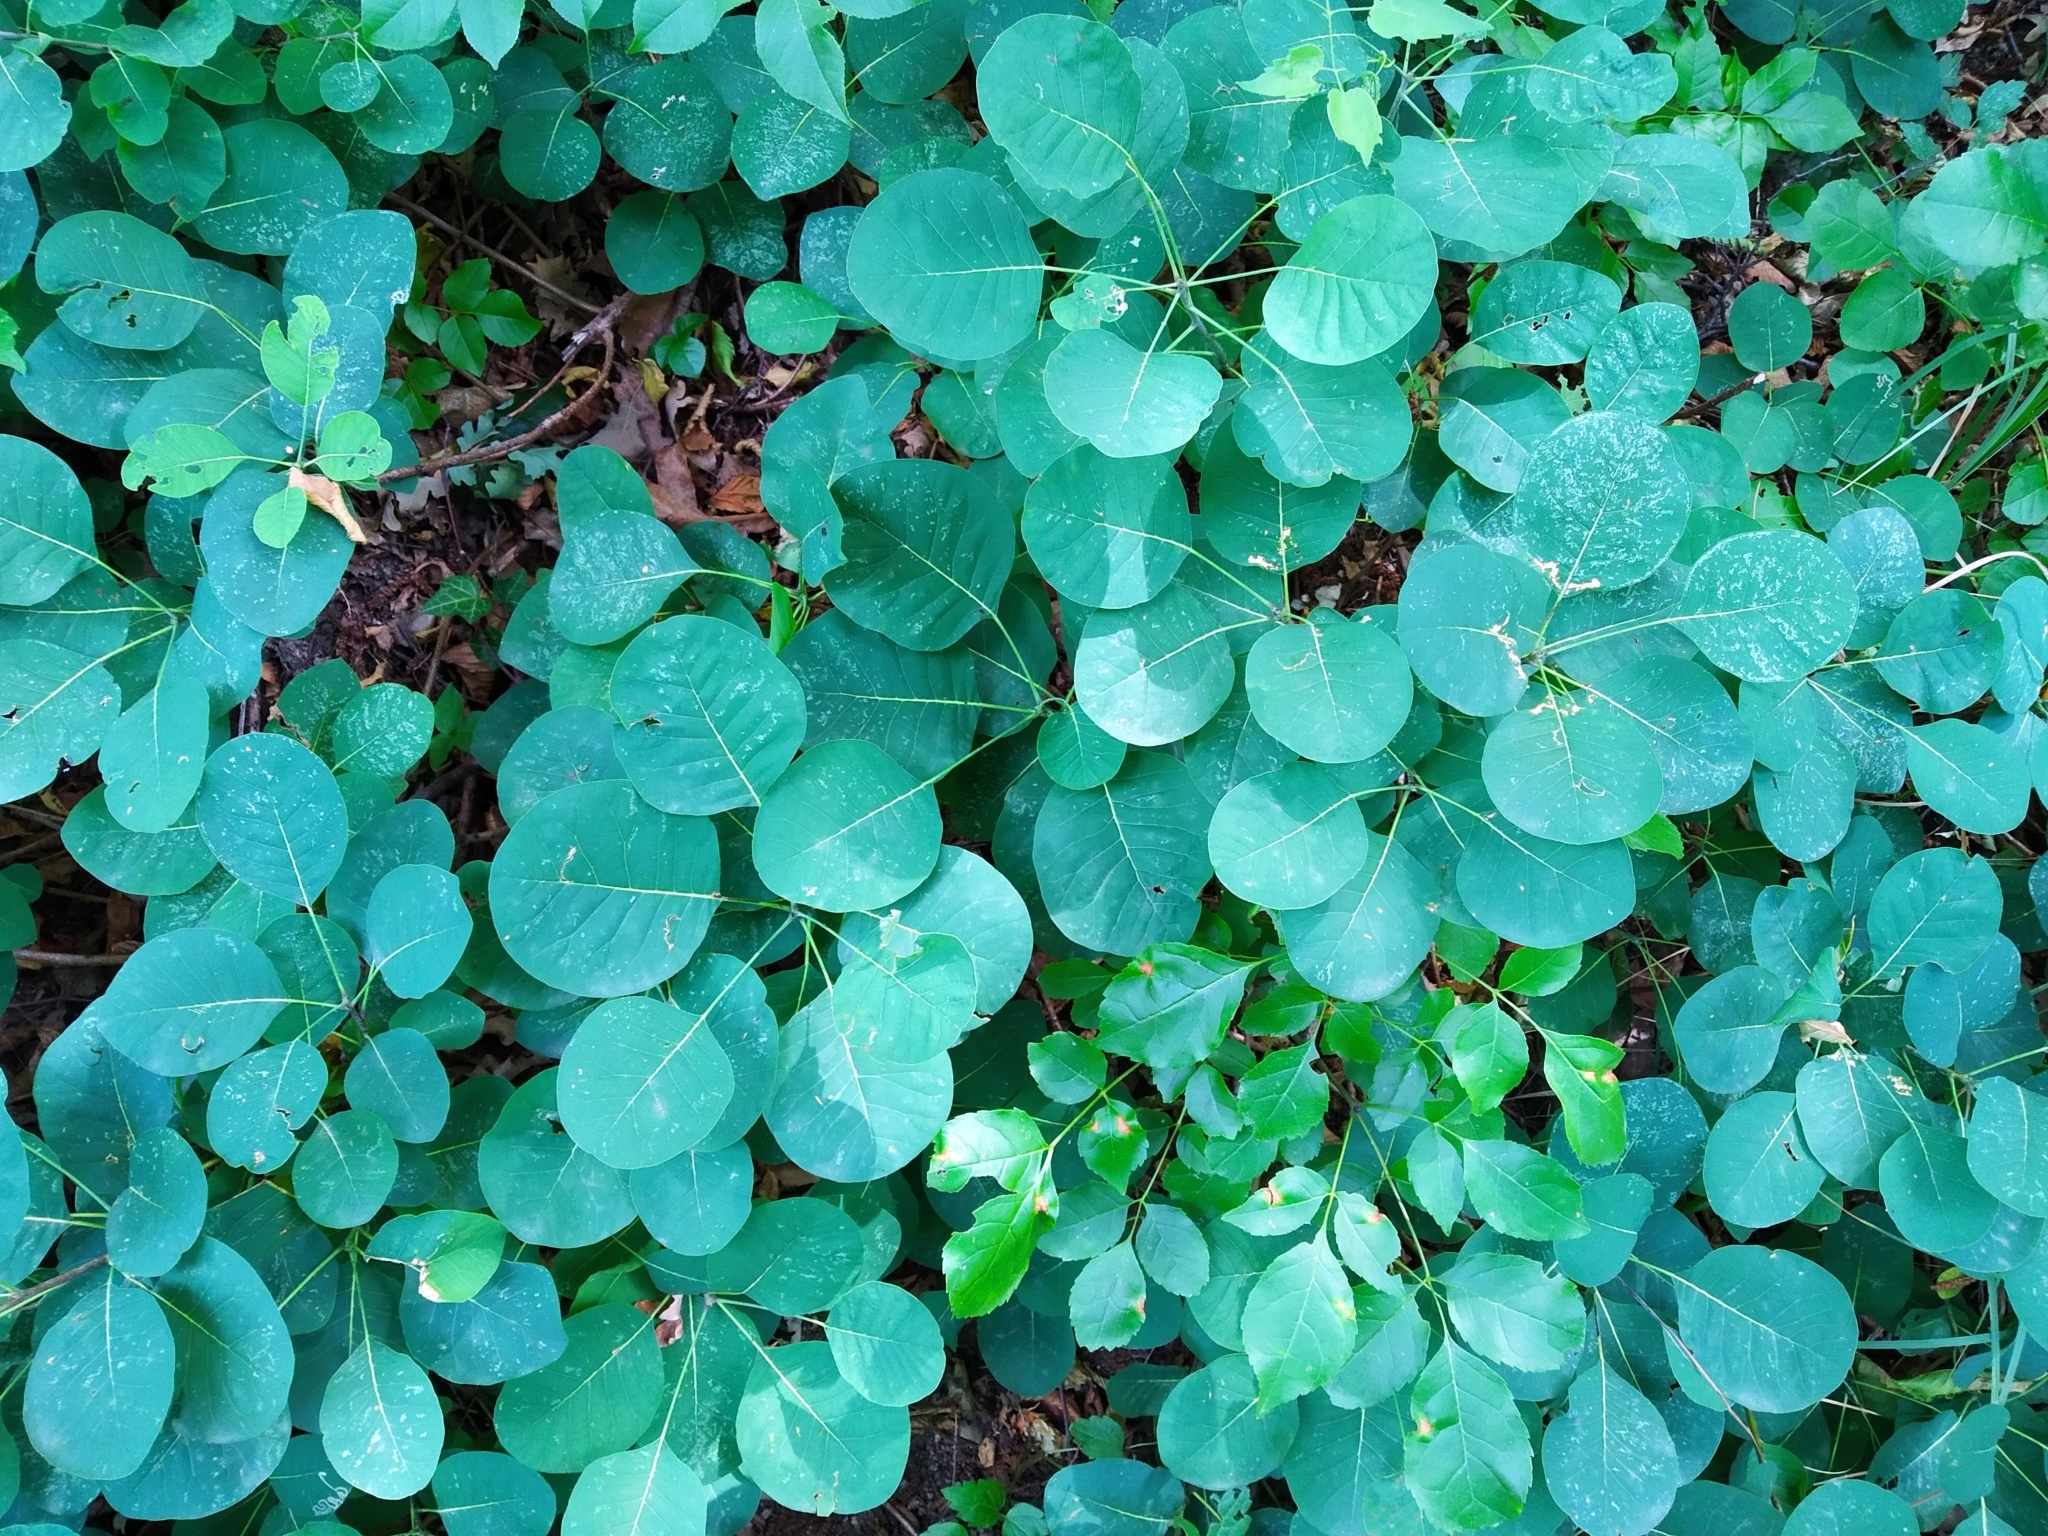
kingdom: Plantae
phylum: Tracheophyta
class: Magnoliopsida
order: Sapindales
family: Anacardiaceae
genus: Cotinus
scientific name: Cotinus coggygria
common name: Smoke-tree
